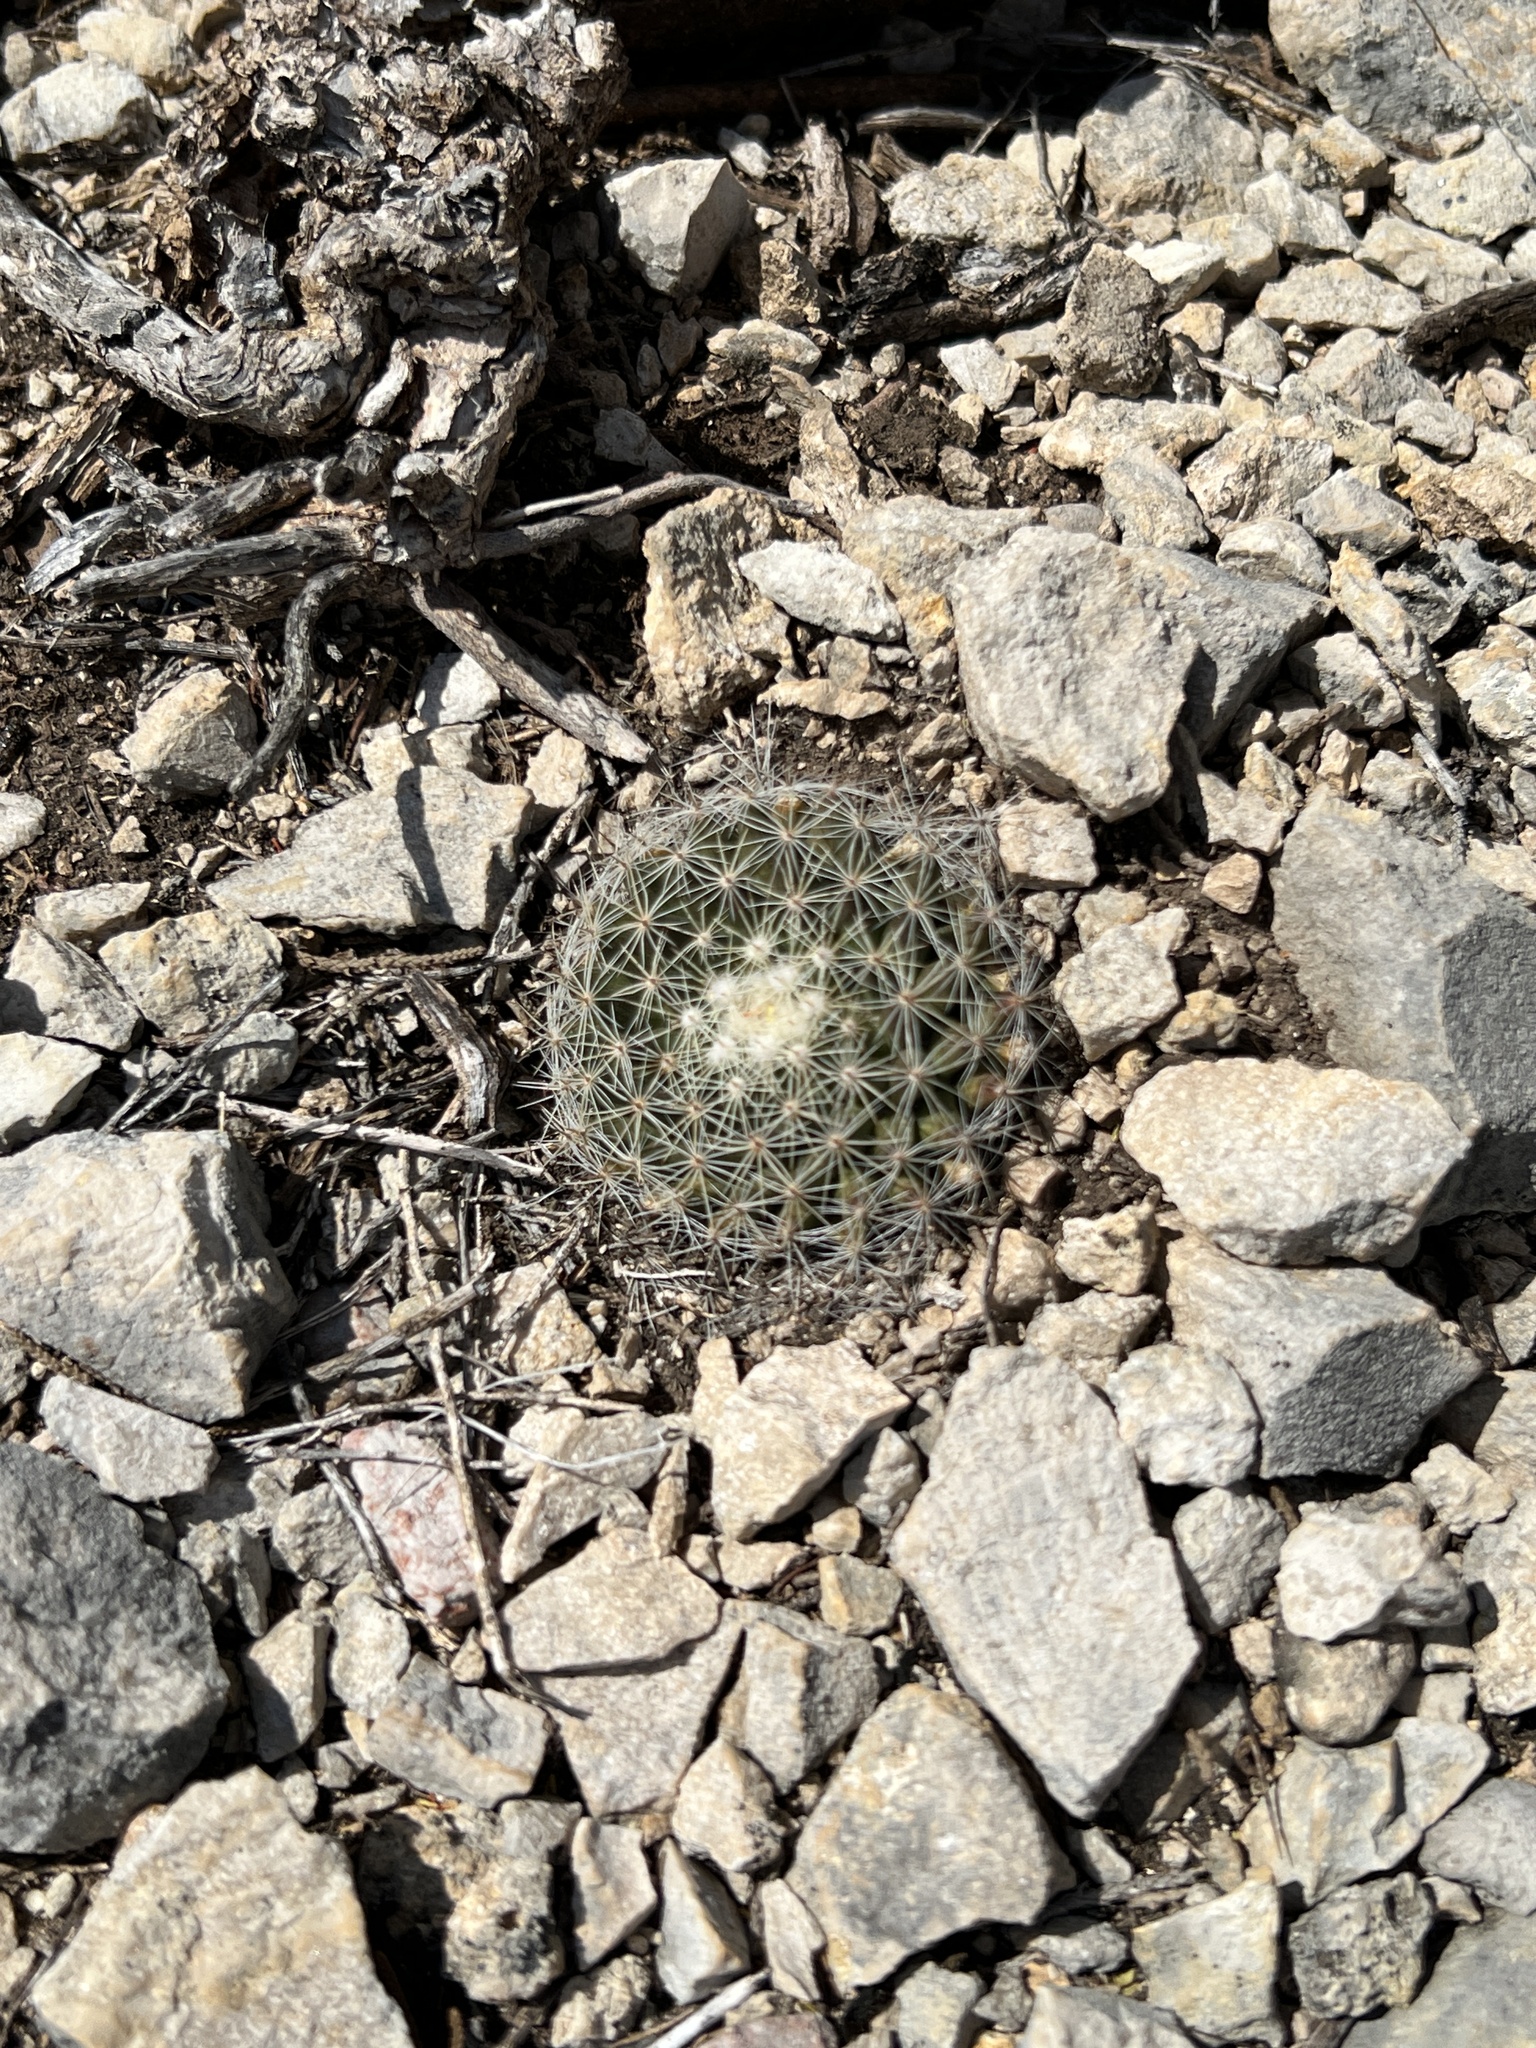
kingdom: Plantae
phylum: Tracheophyta
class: Magnoliopsida
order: Caryophyllales
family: Cactaceae
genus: Mammillaria
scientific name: Mammillaria heyderi
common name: Little nipple cactus
